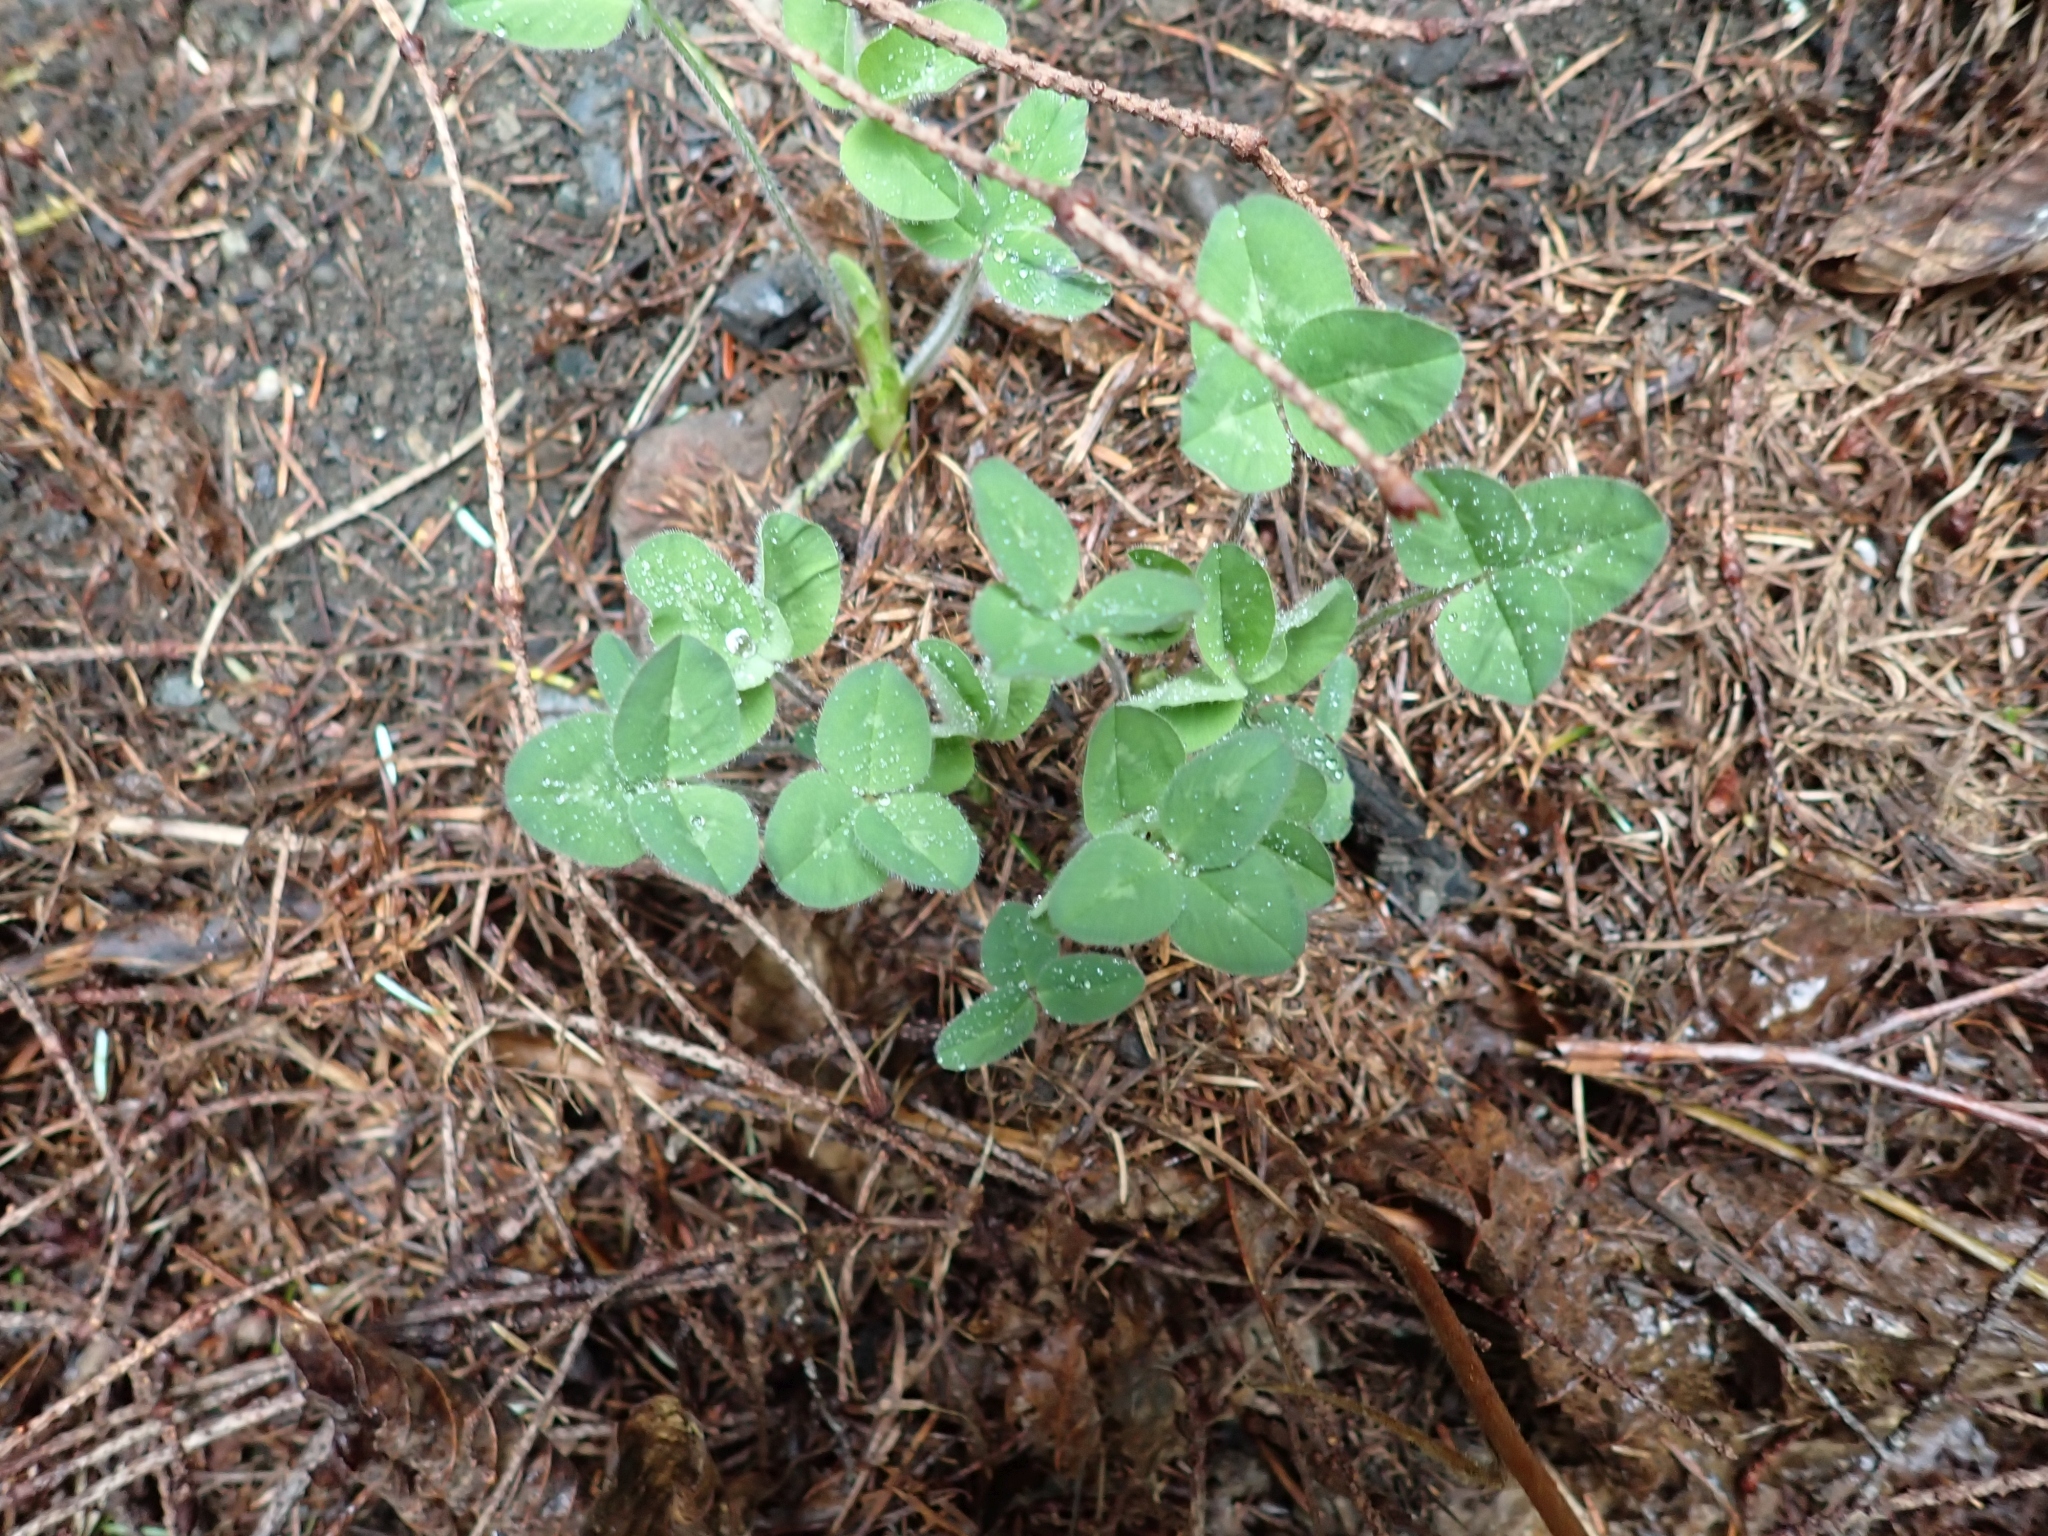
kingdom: Plantae
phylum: Tracheophyta
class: Magnoliopsida
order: Fabales
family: Fabaceae
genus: Trifolium
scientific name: Trifolium pratense
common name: Red clover
